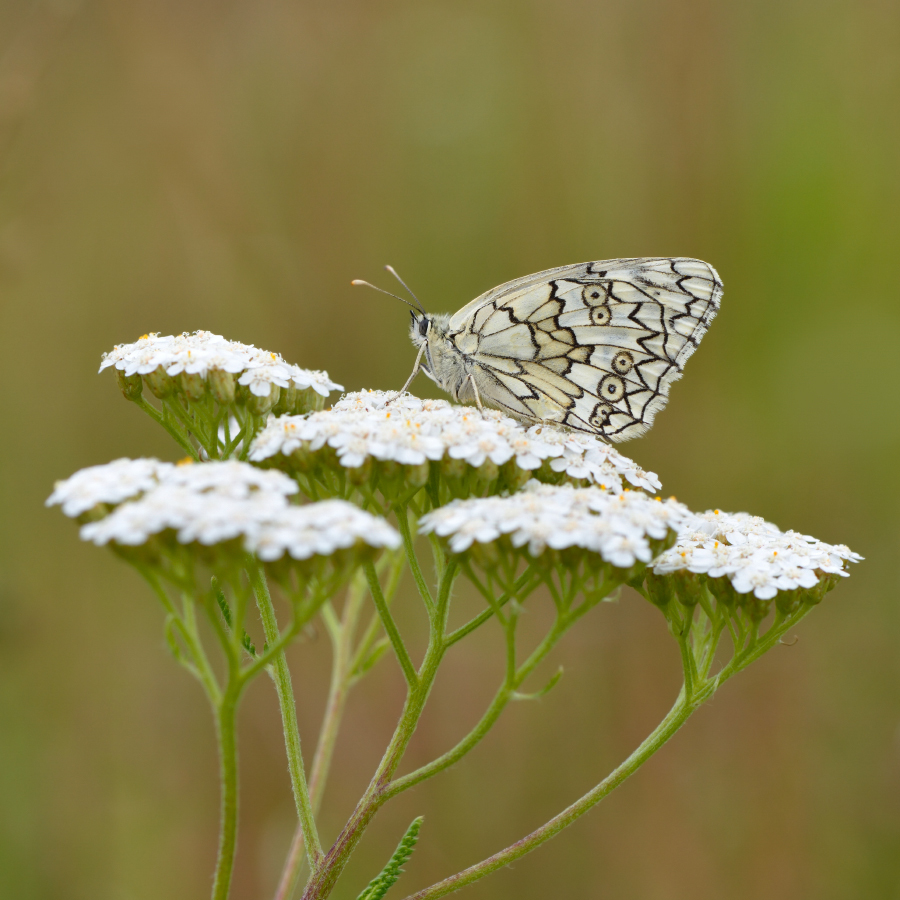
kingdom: Animalia
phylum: Arthropoda
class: Insecta
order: Lepidoptera
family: Nymphalidae
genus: Melanargia
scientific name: Melanargia japygia
